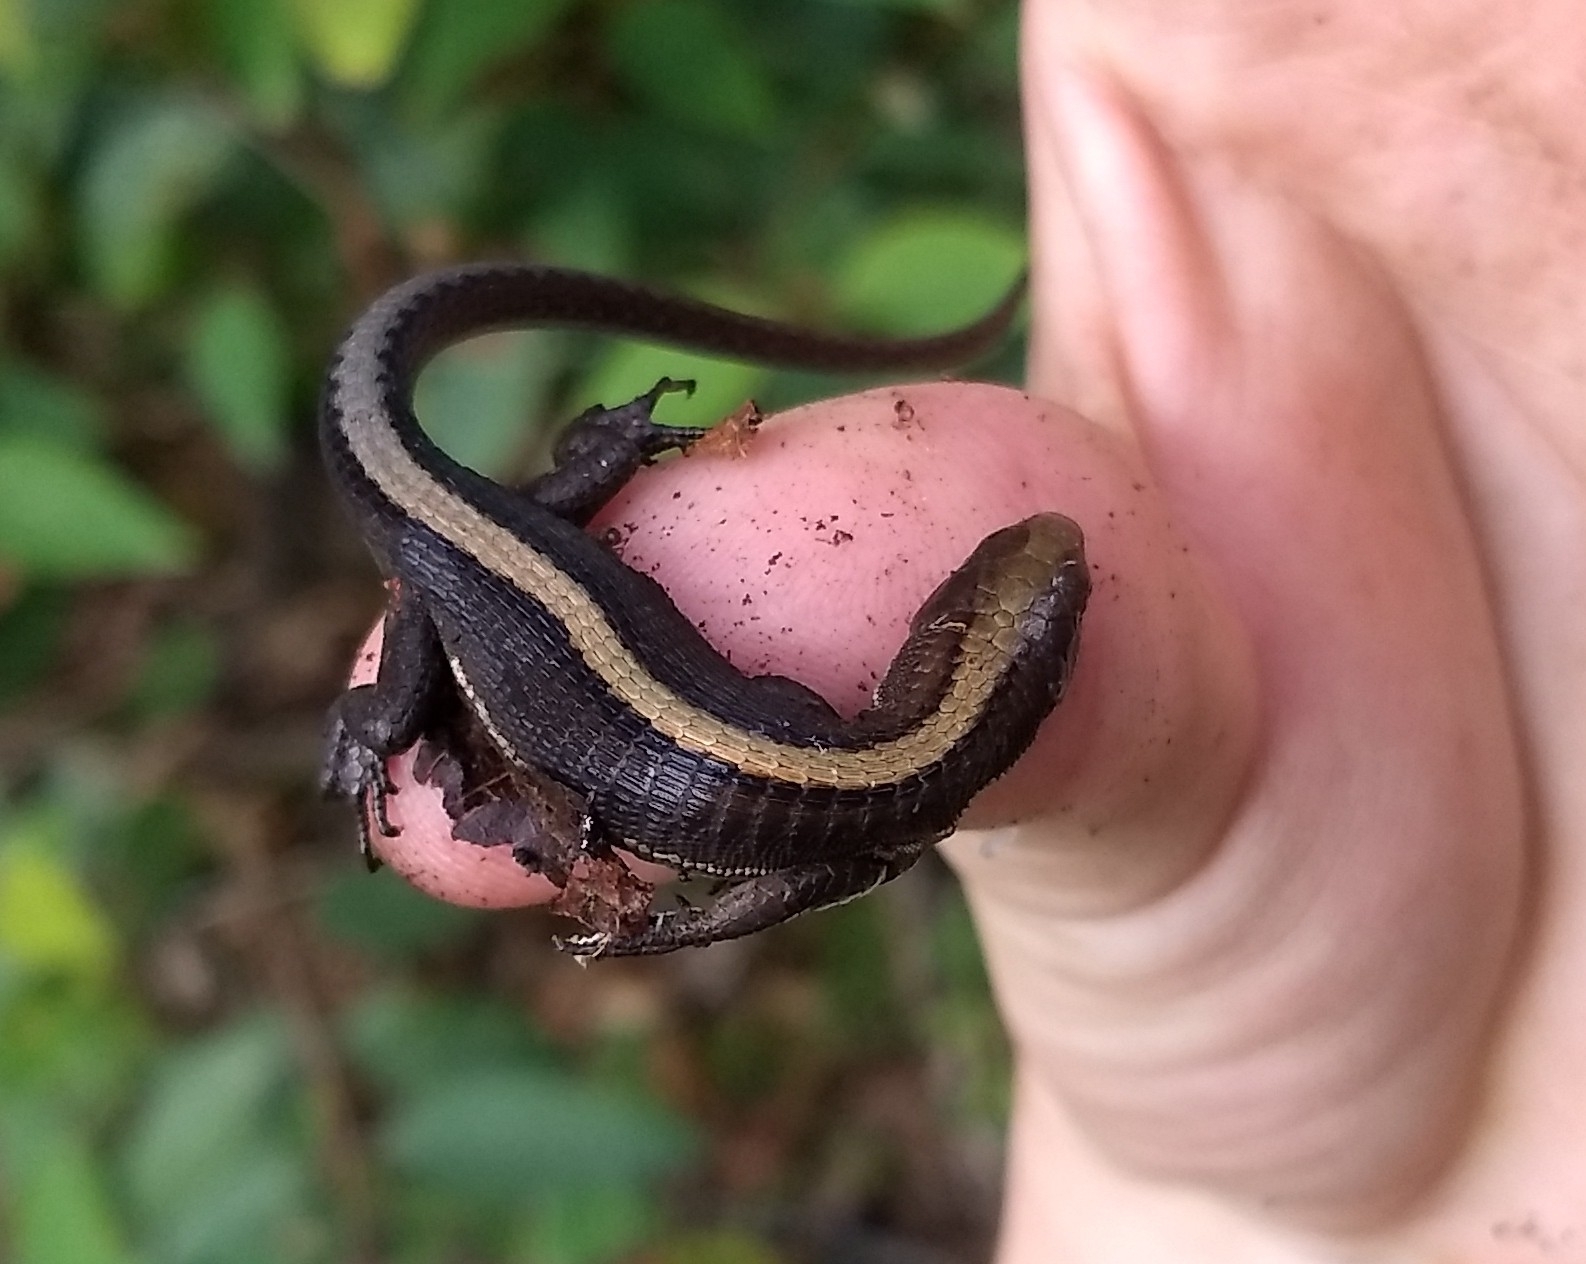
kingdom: Animalia
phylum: Chordata
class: Squamata
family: Gymnophthalmidae
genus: Pholidobolus
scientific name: Pholidobolus vertebralis
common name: Brown prionodactylus
